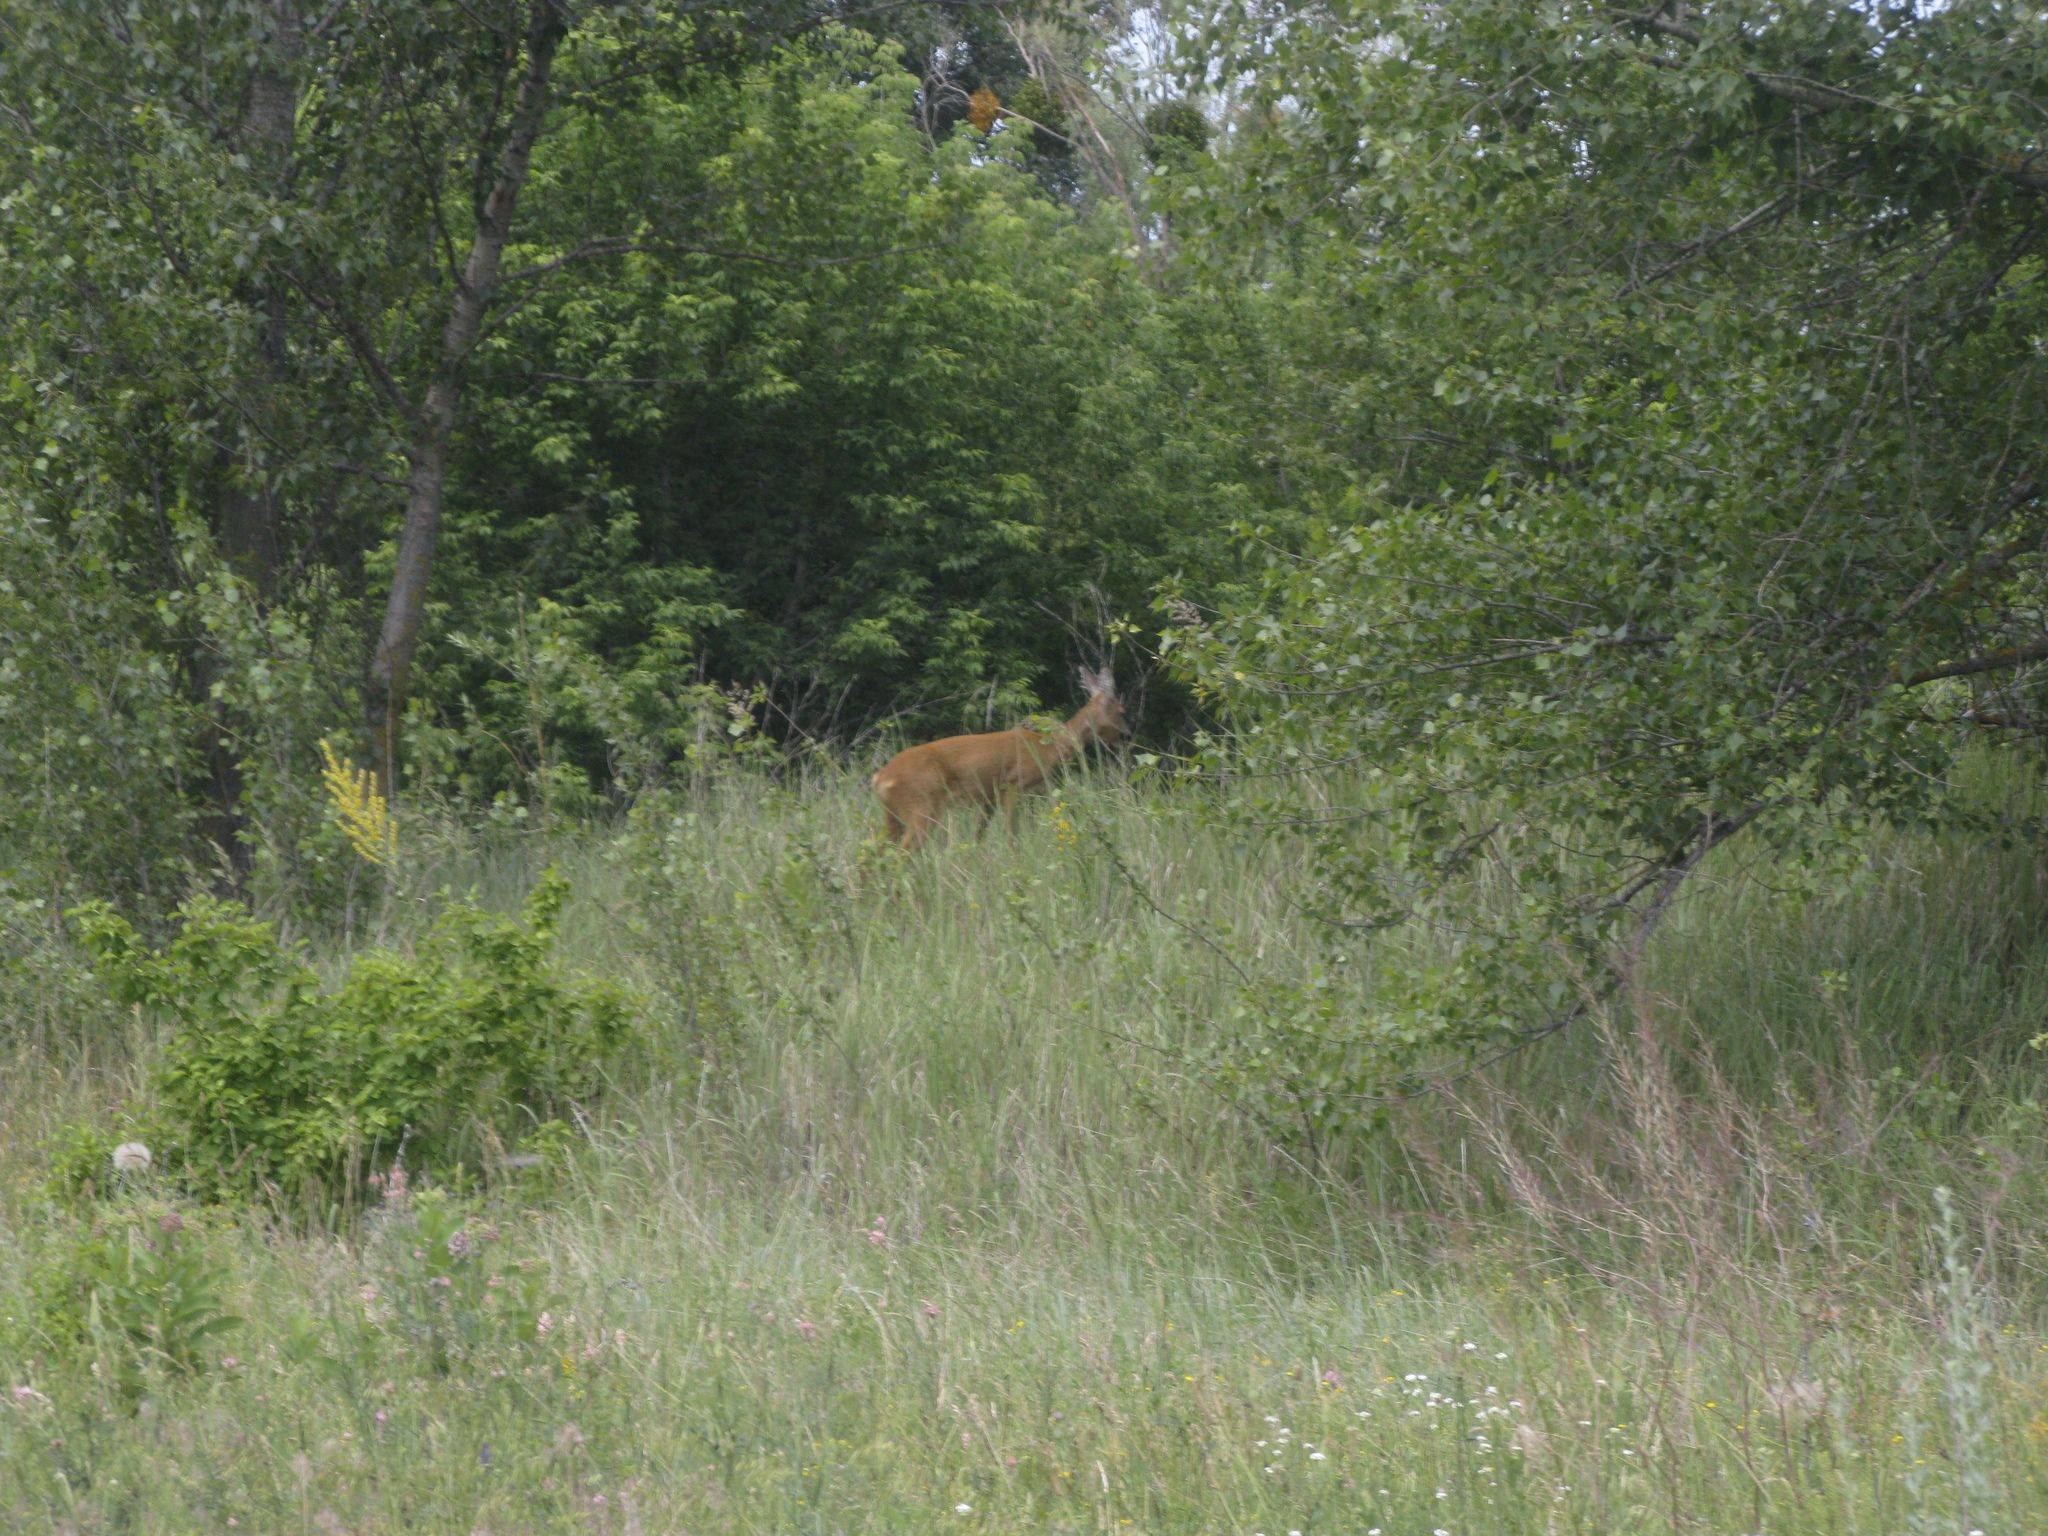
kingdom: Animalia
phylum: Chordata
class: Mammalia
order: Artiodactyla
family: Cervidae
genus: Capreolus
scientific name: Capreolus capreolus
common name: Western roe deer
